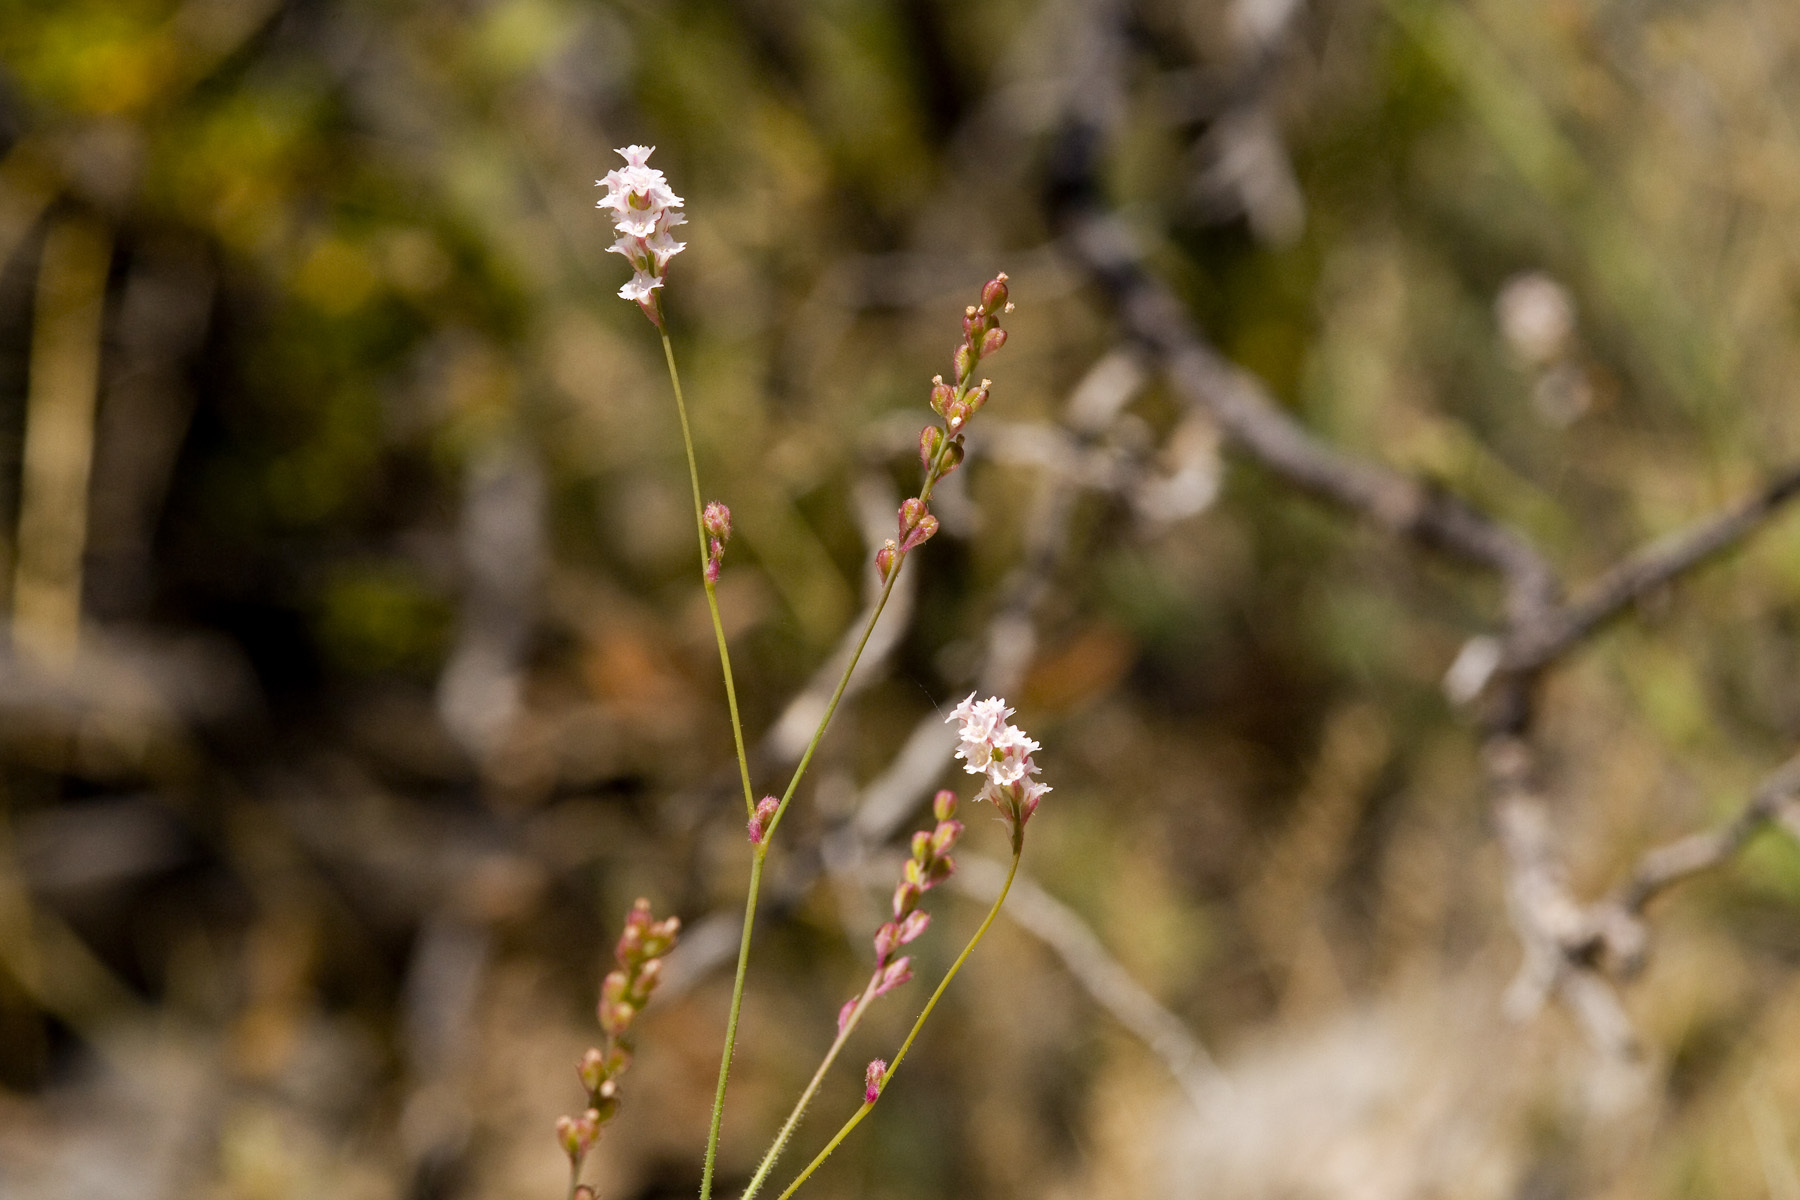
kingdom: Plantae
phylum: Tracheophyta
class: Magnoliopsida
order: Caryophyllales
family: Nyctaginaceae
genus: Boerhavia
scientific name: Boerhavia wrightii
